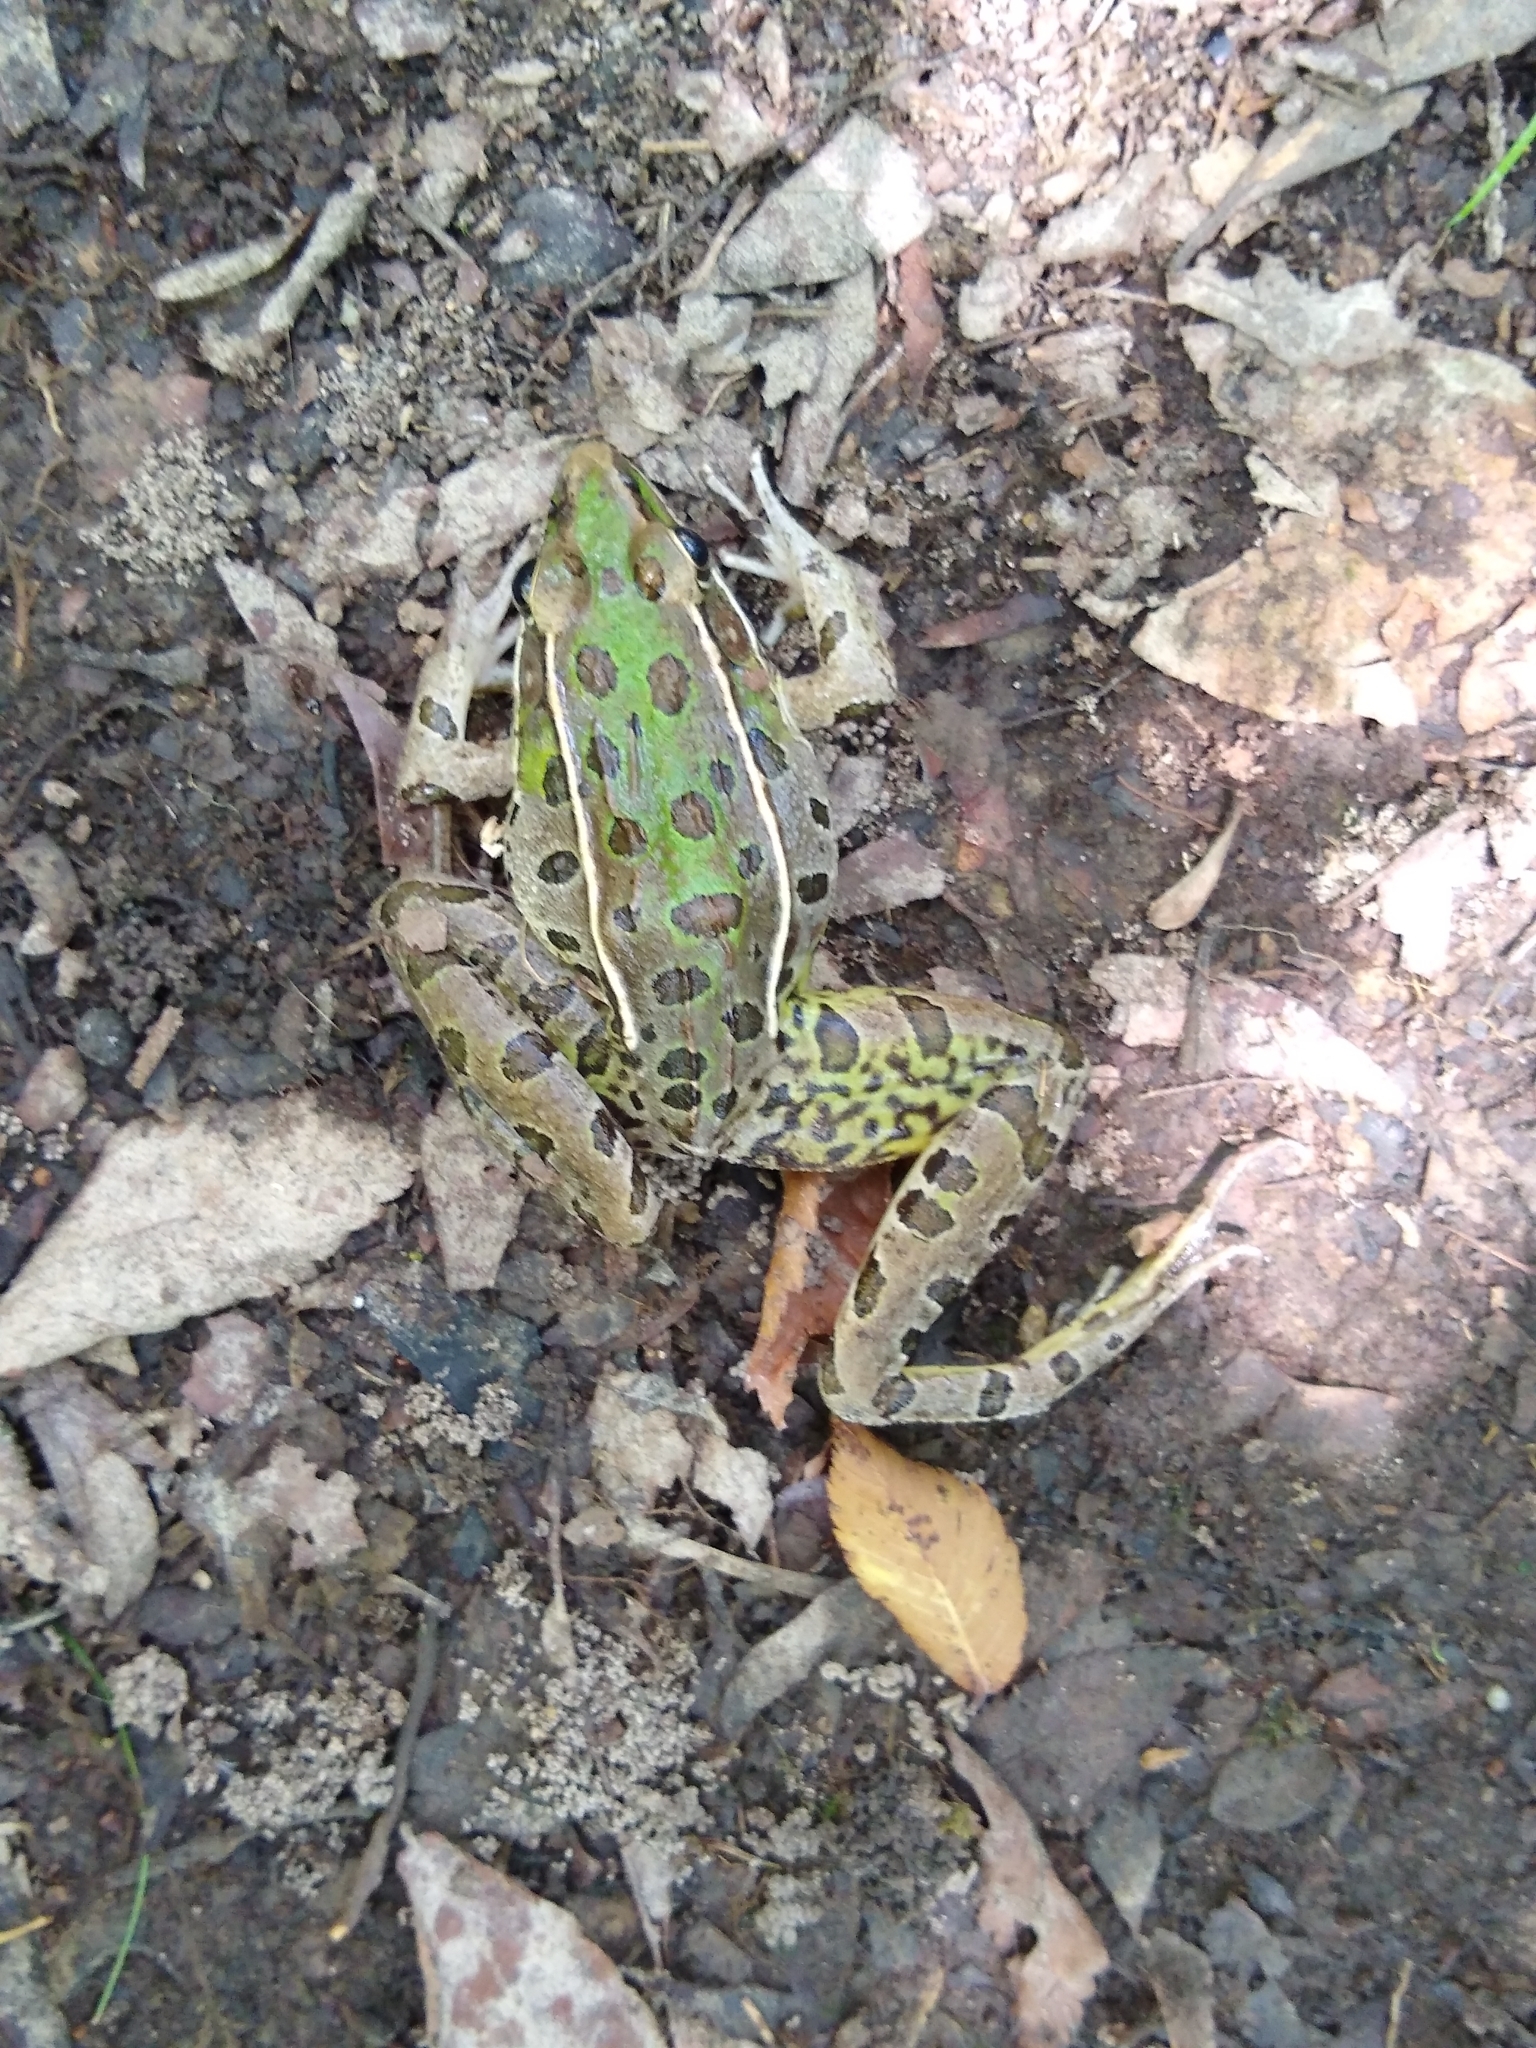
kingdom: Animalia
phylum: Chordata
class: Amphibia
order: Anura
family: Ranidae
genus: Lithobates
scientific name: Lithobates sphenocephalus
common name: Southern leopard frog
